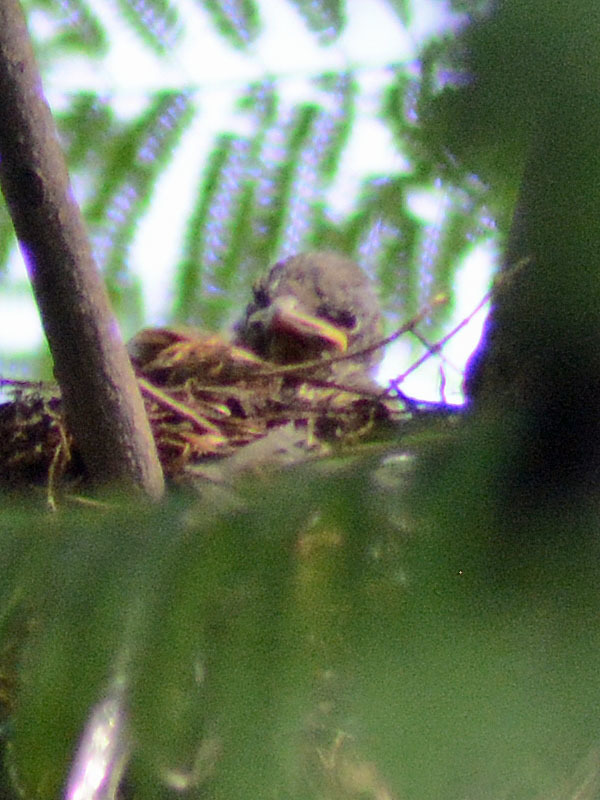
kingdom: Animalia
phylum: Chordata
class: Aves
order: Passeriformes
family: Turdidae
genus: Turdus
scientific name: Turdus rufopalliatus
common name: Rufous-backed robin
